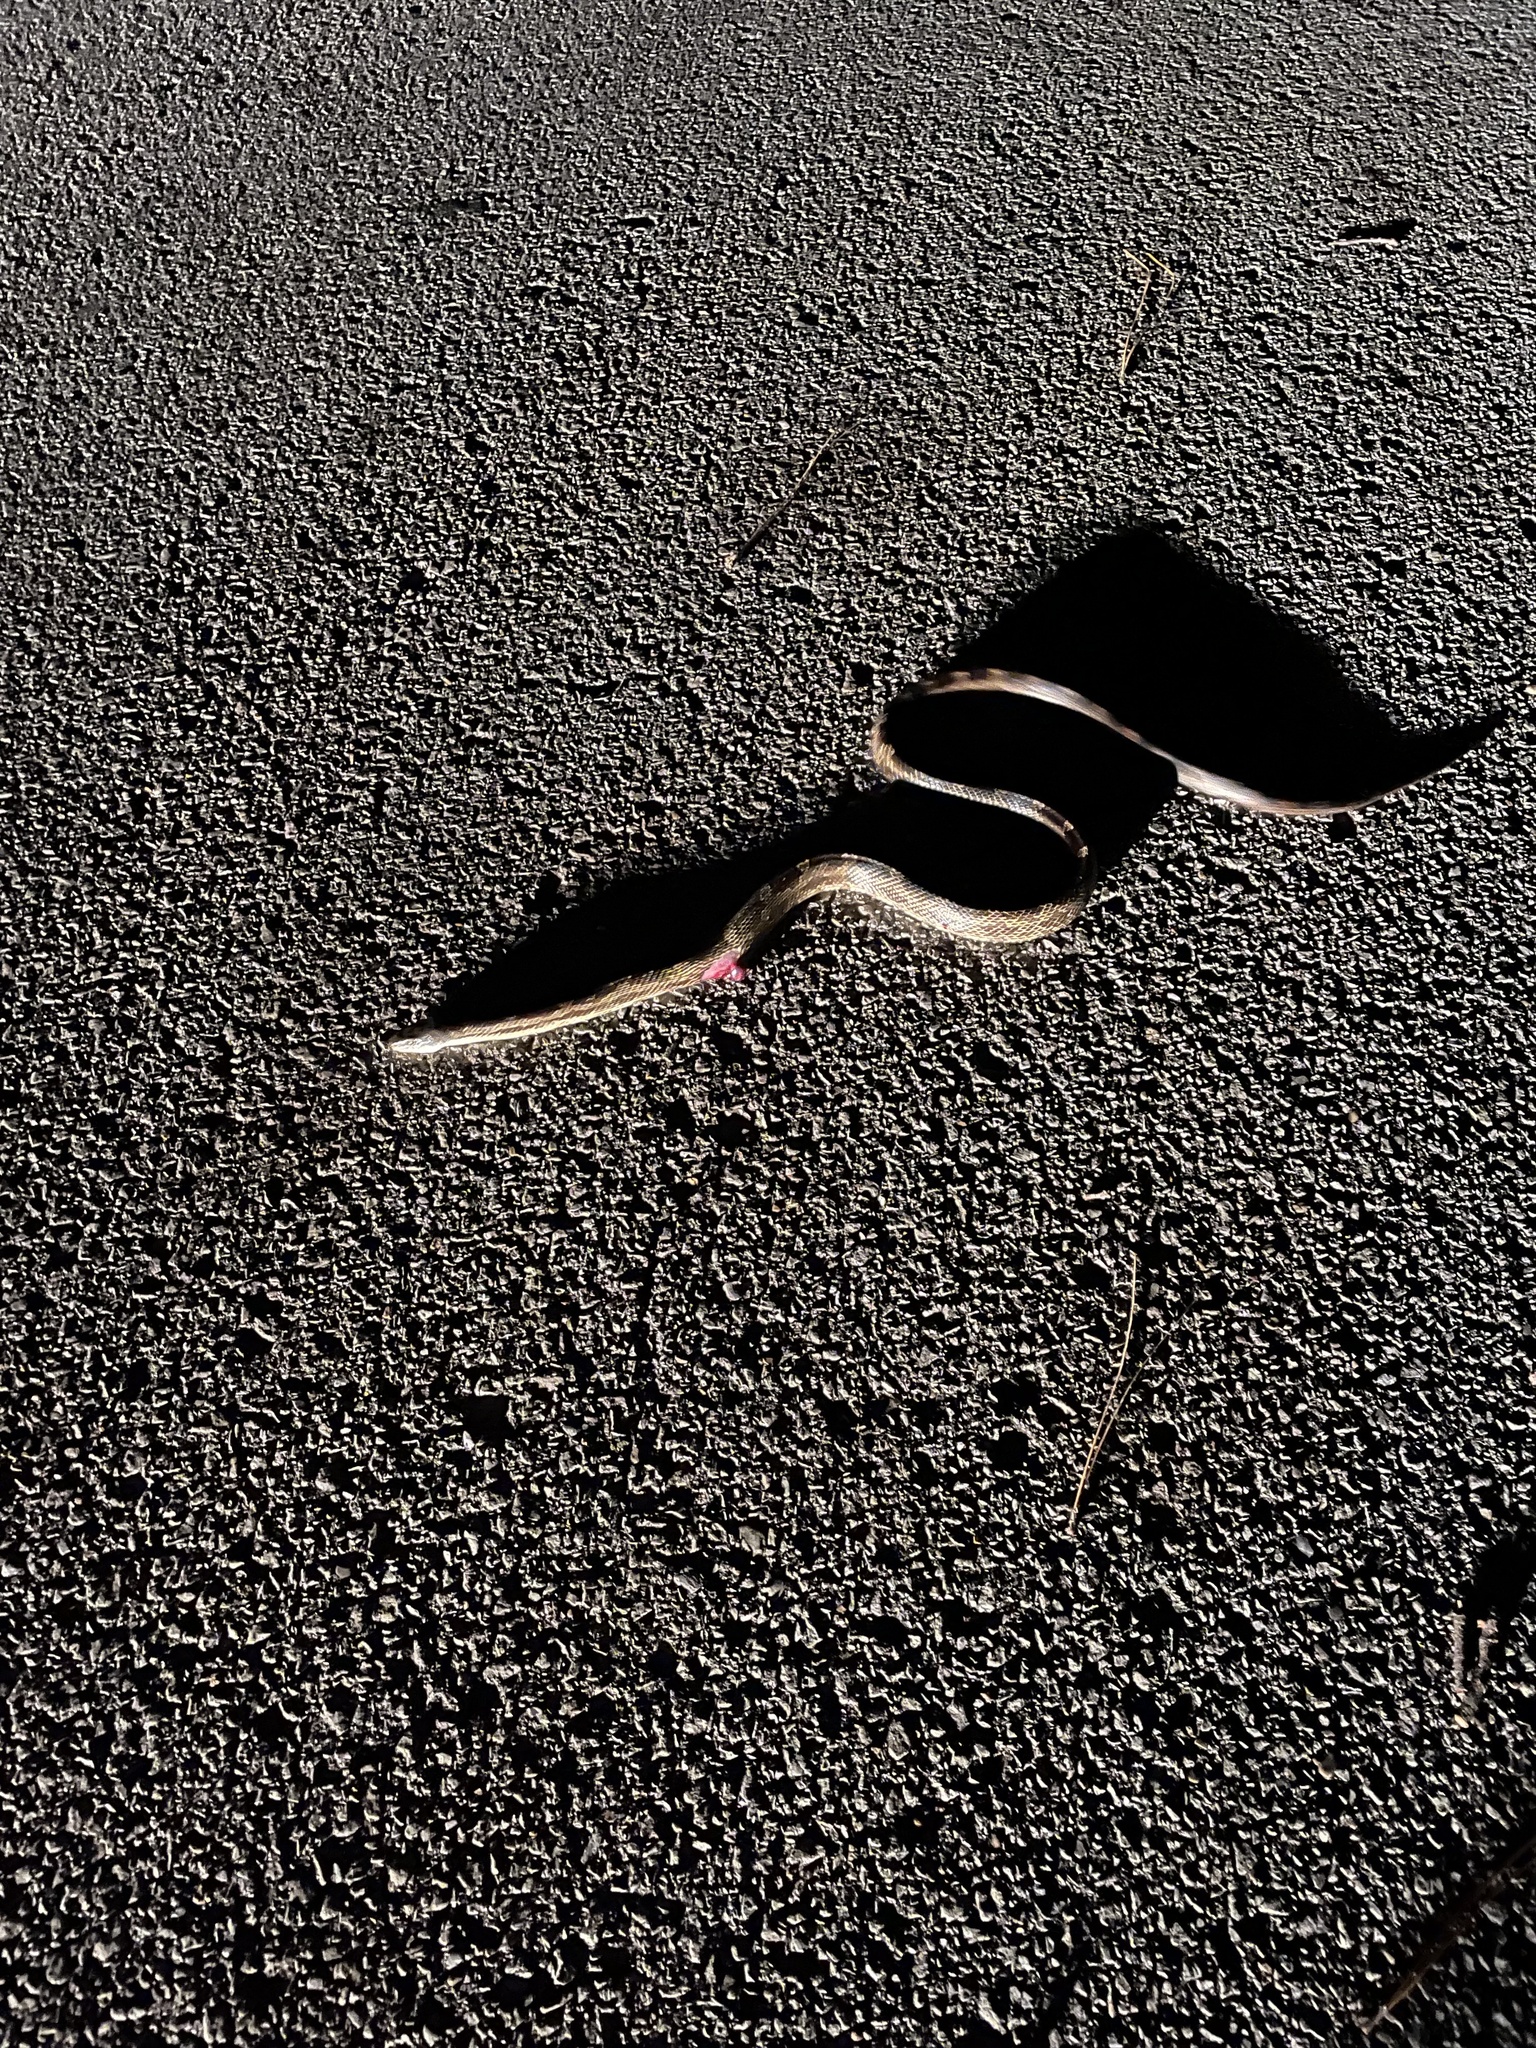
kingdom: Animalia
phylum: Chordata
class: Squamata
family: Colubridae
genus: Pantherophis
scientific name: Pantherophis spiloides
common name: Gray rat snake
